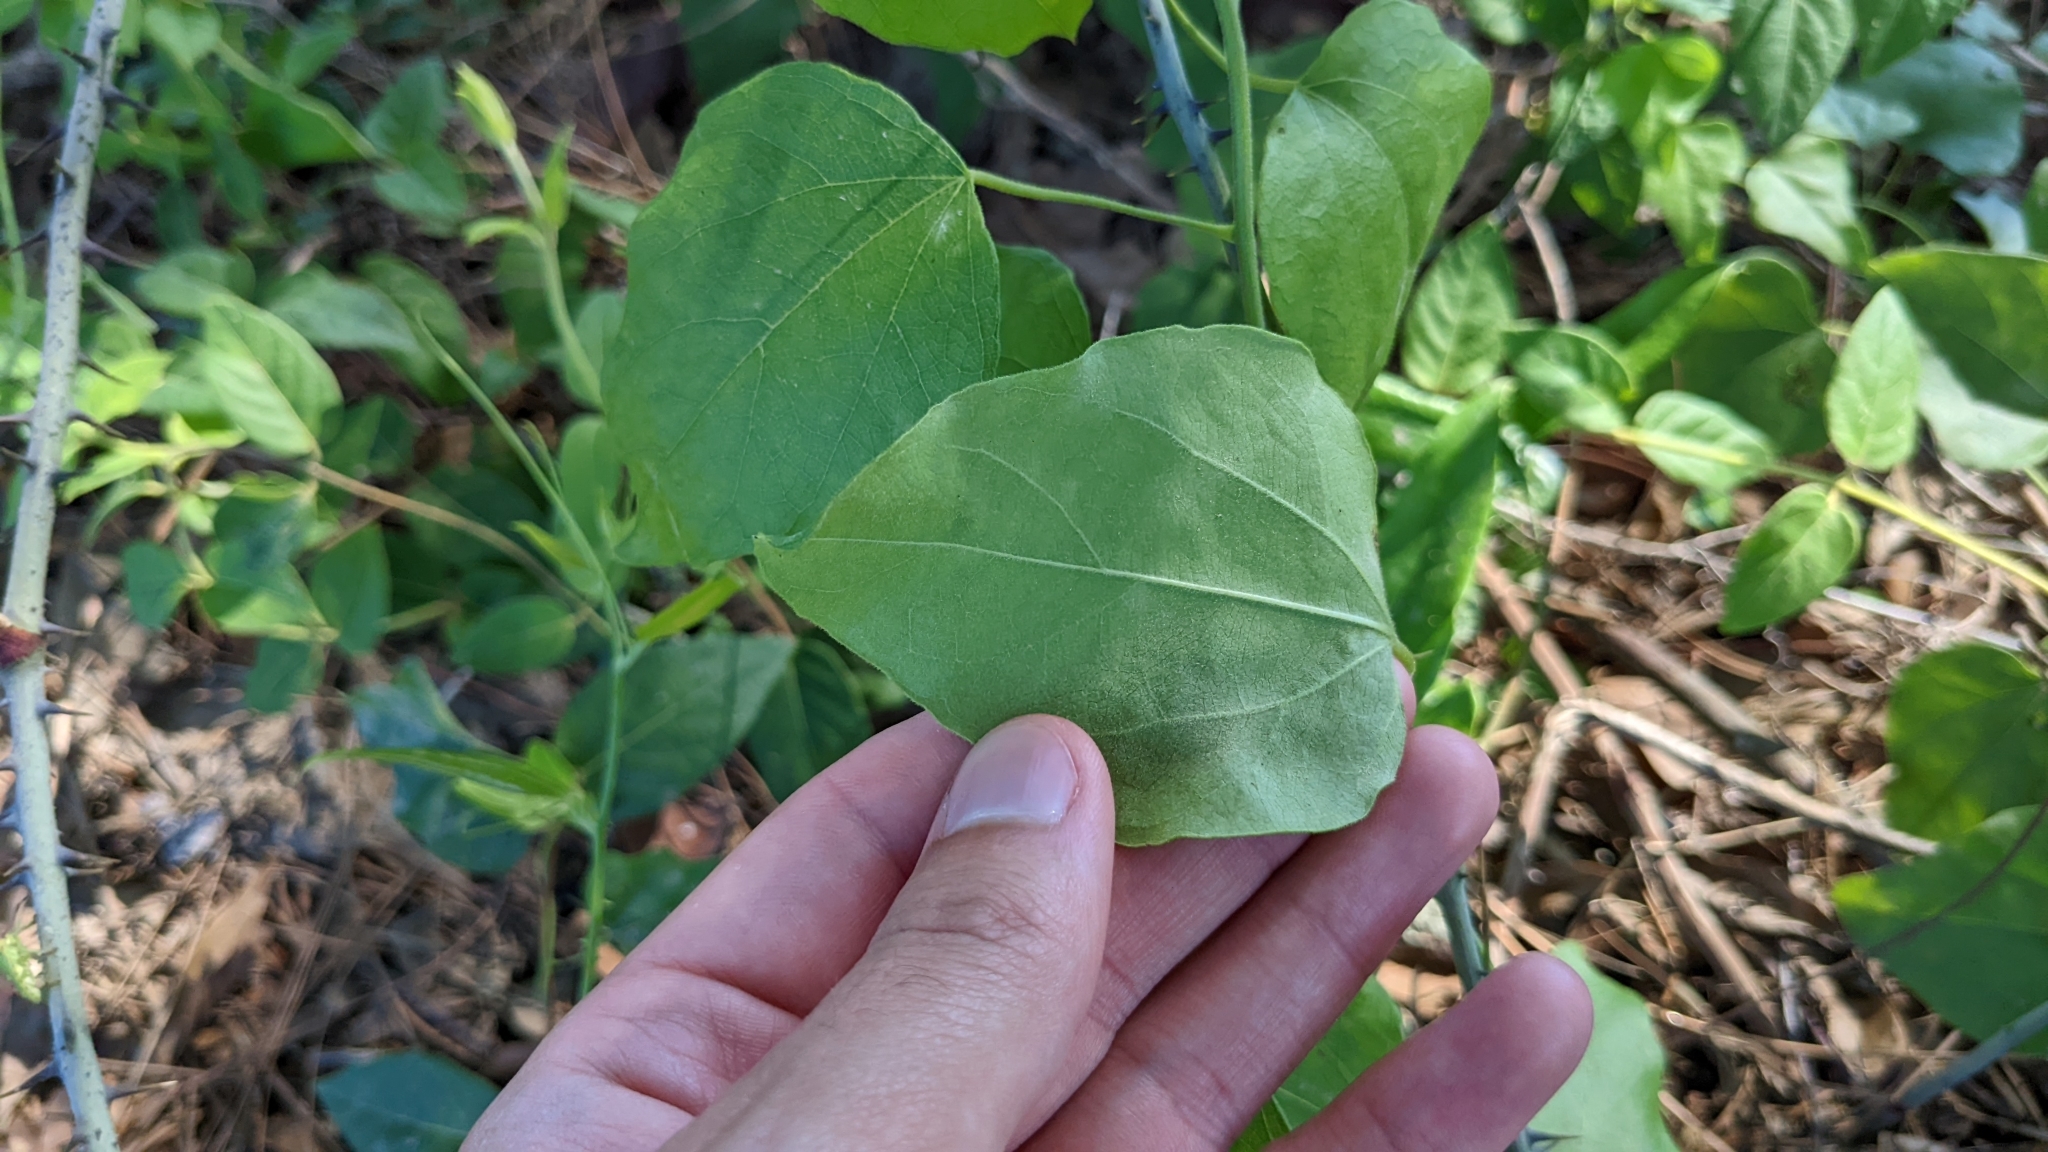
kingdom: Plantae
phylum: Tracheophyta
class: Magnoliopsida
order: Ranunculales
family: Menispermaceae
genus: Cocculus
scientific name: Cocculus carolinus
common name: Carolina moonseed
